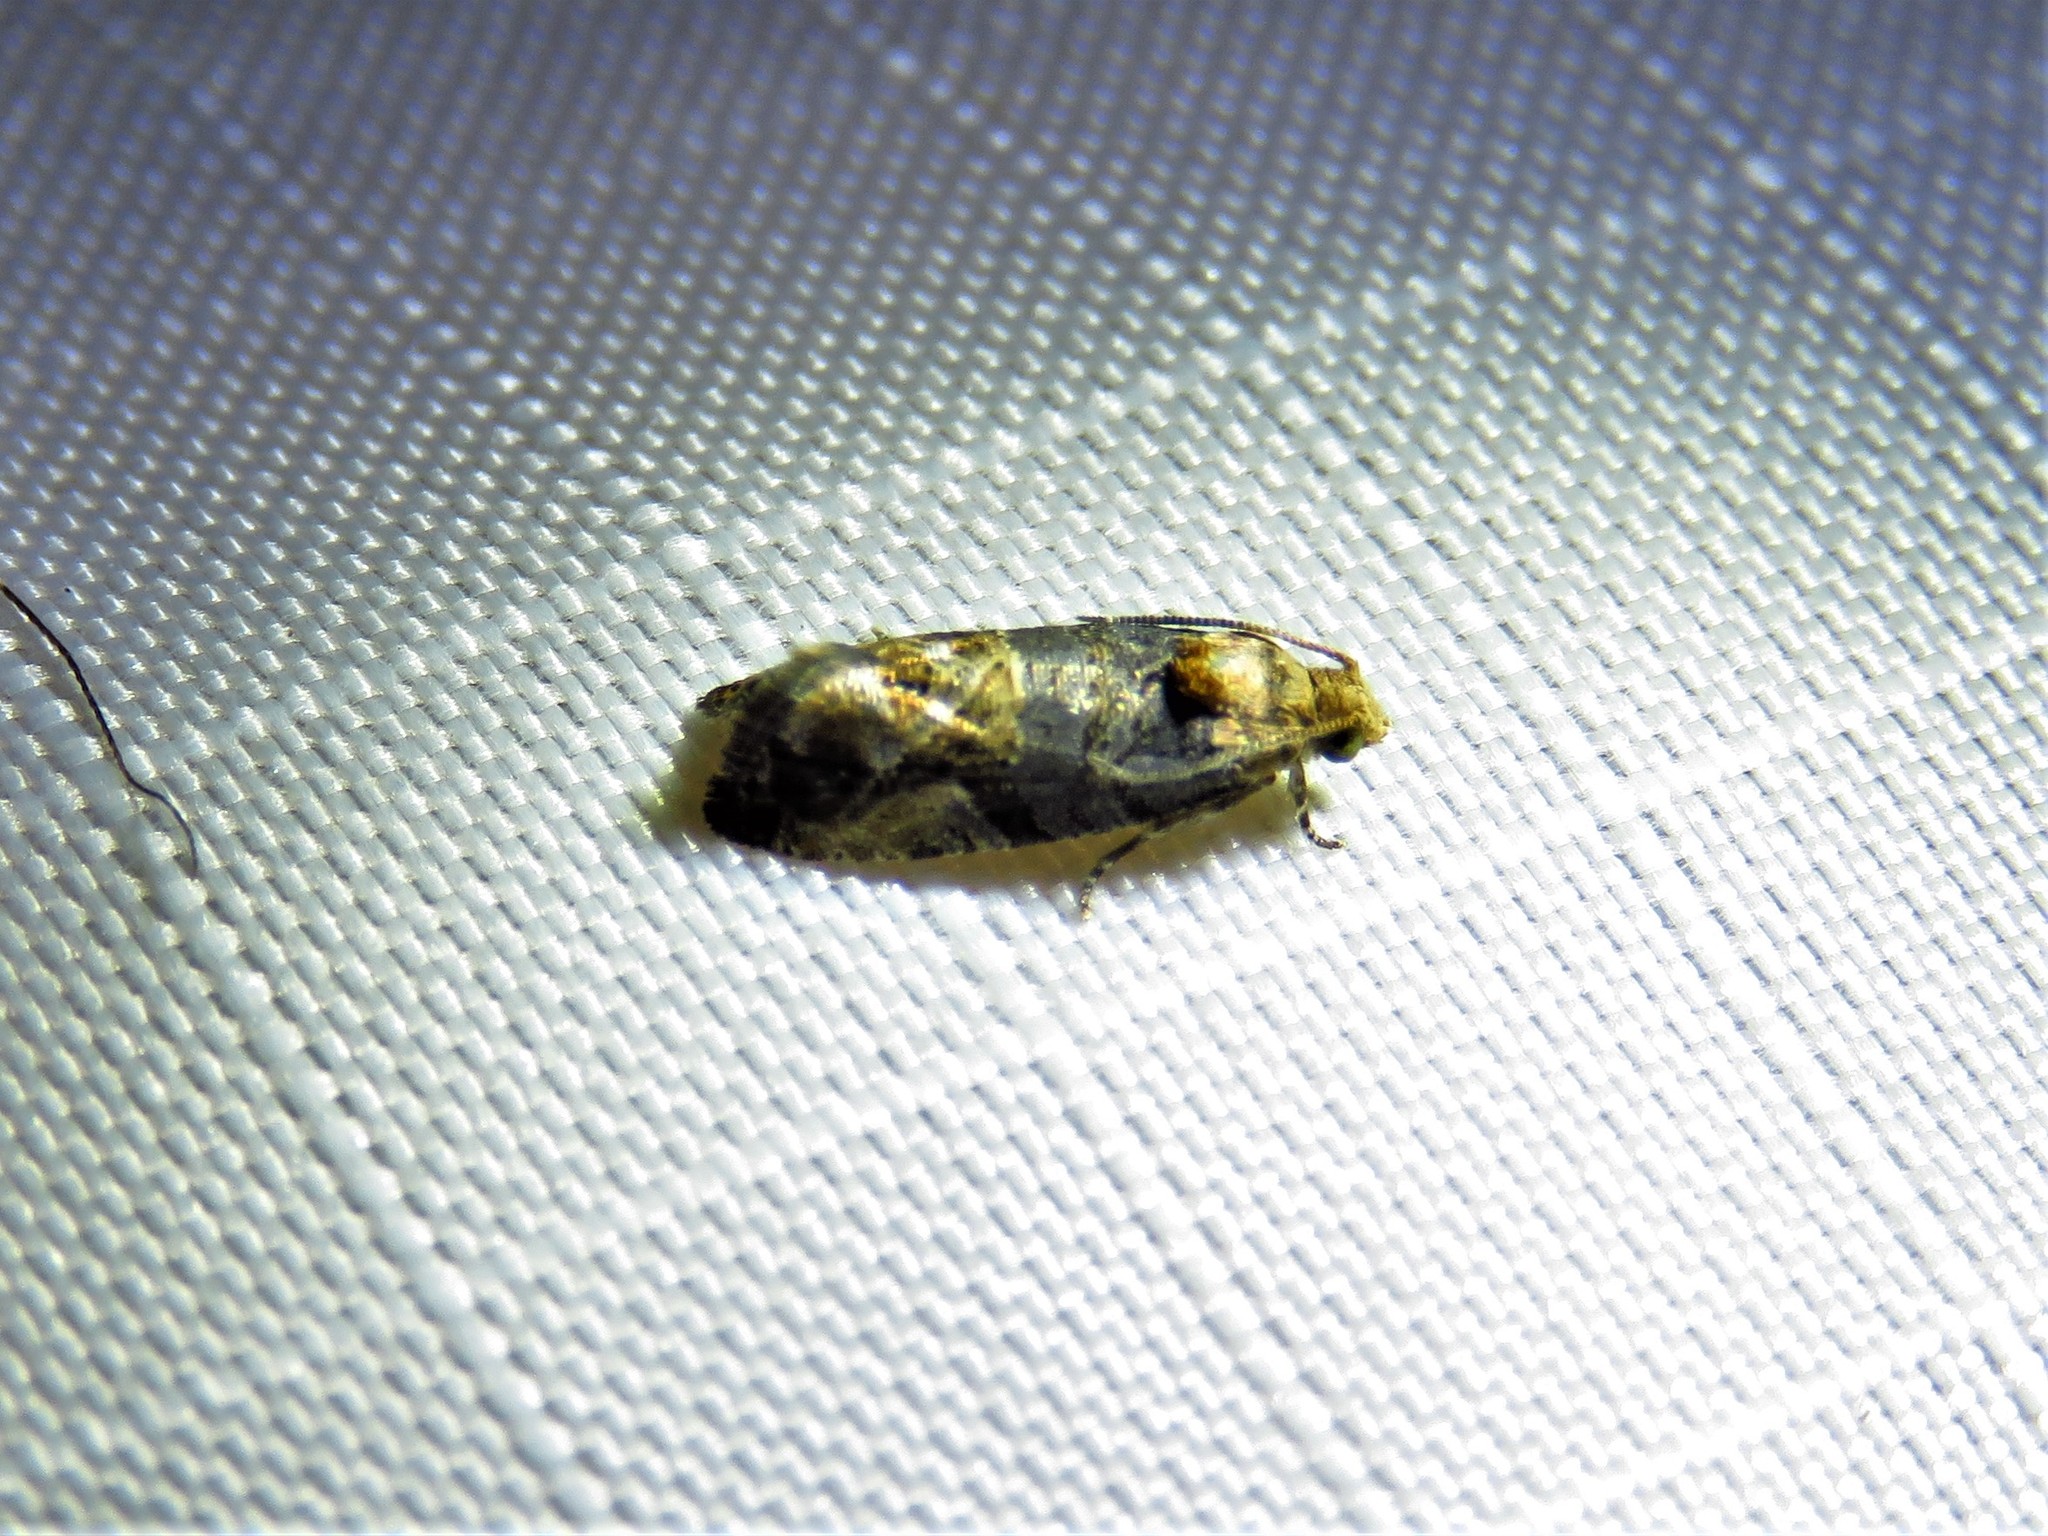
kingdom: Animalia
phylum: Arthropoda
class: Insecta
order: Lepidoptera
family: Tortricidae
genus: Paralobesia
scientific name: Paralobesia viteana
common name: Grape berry moth
